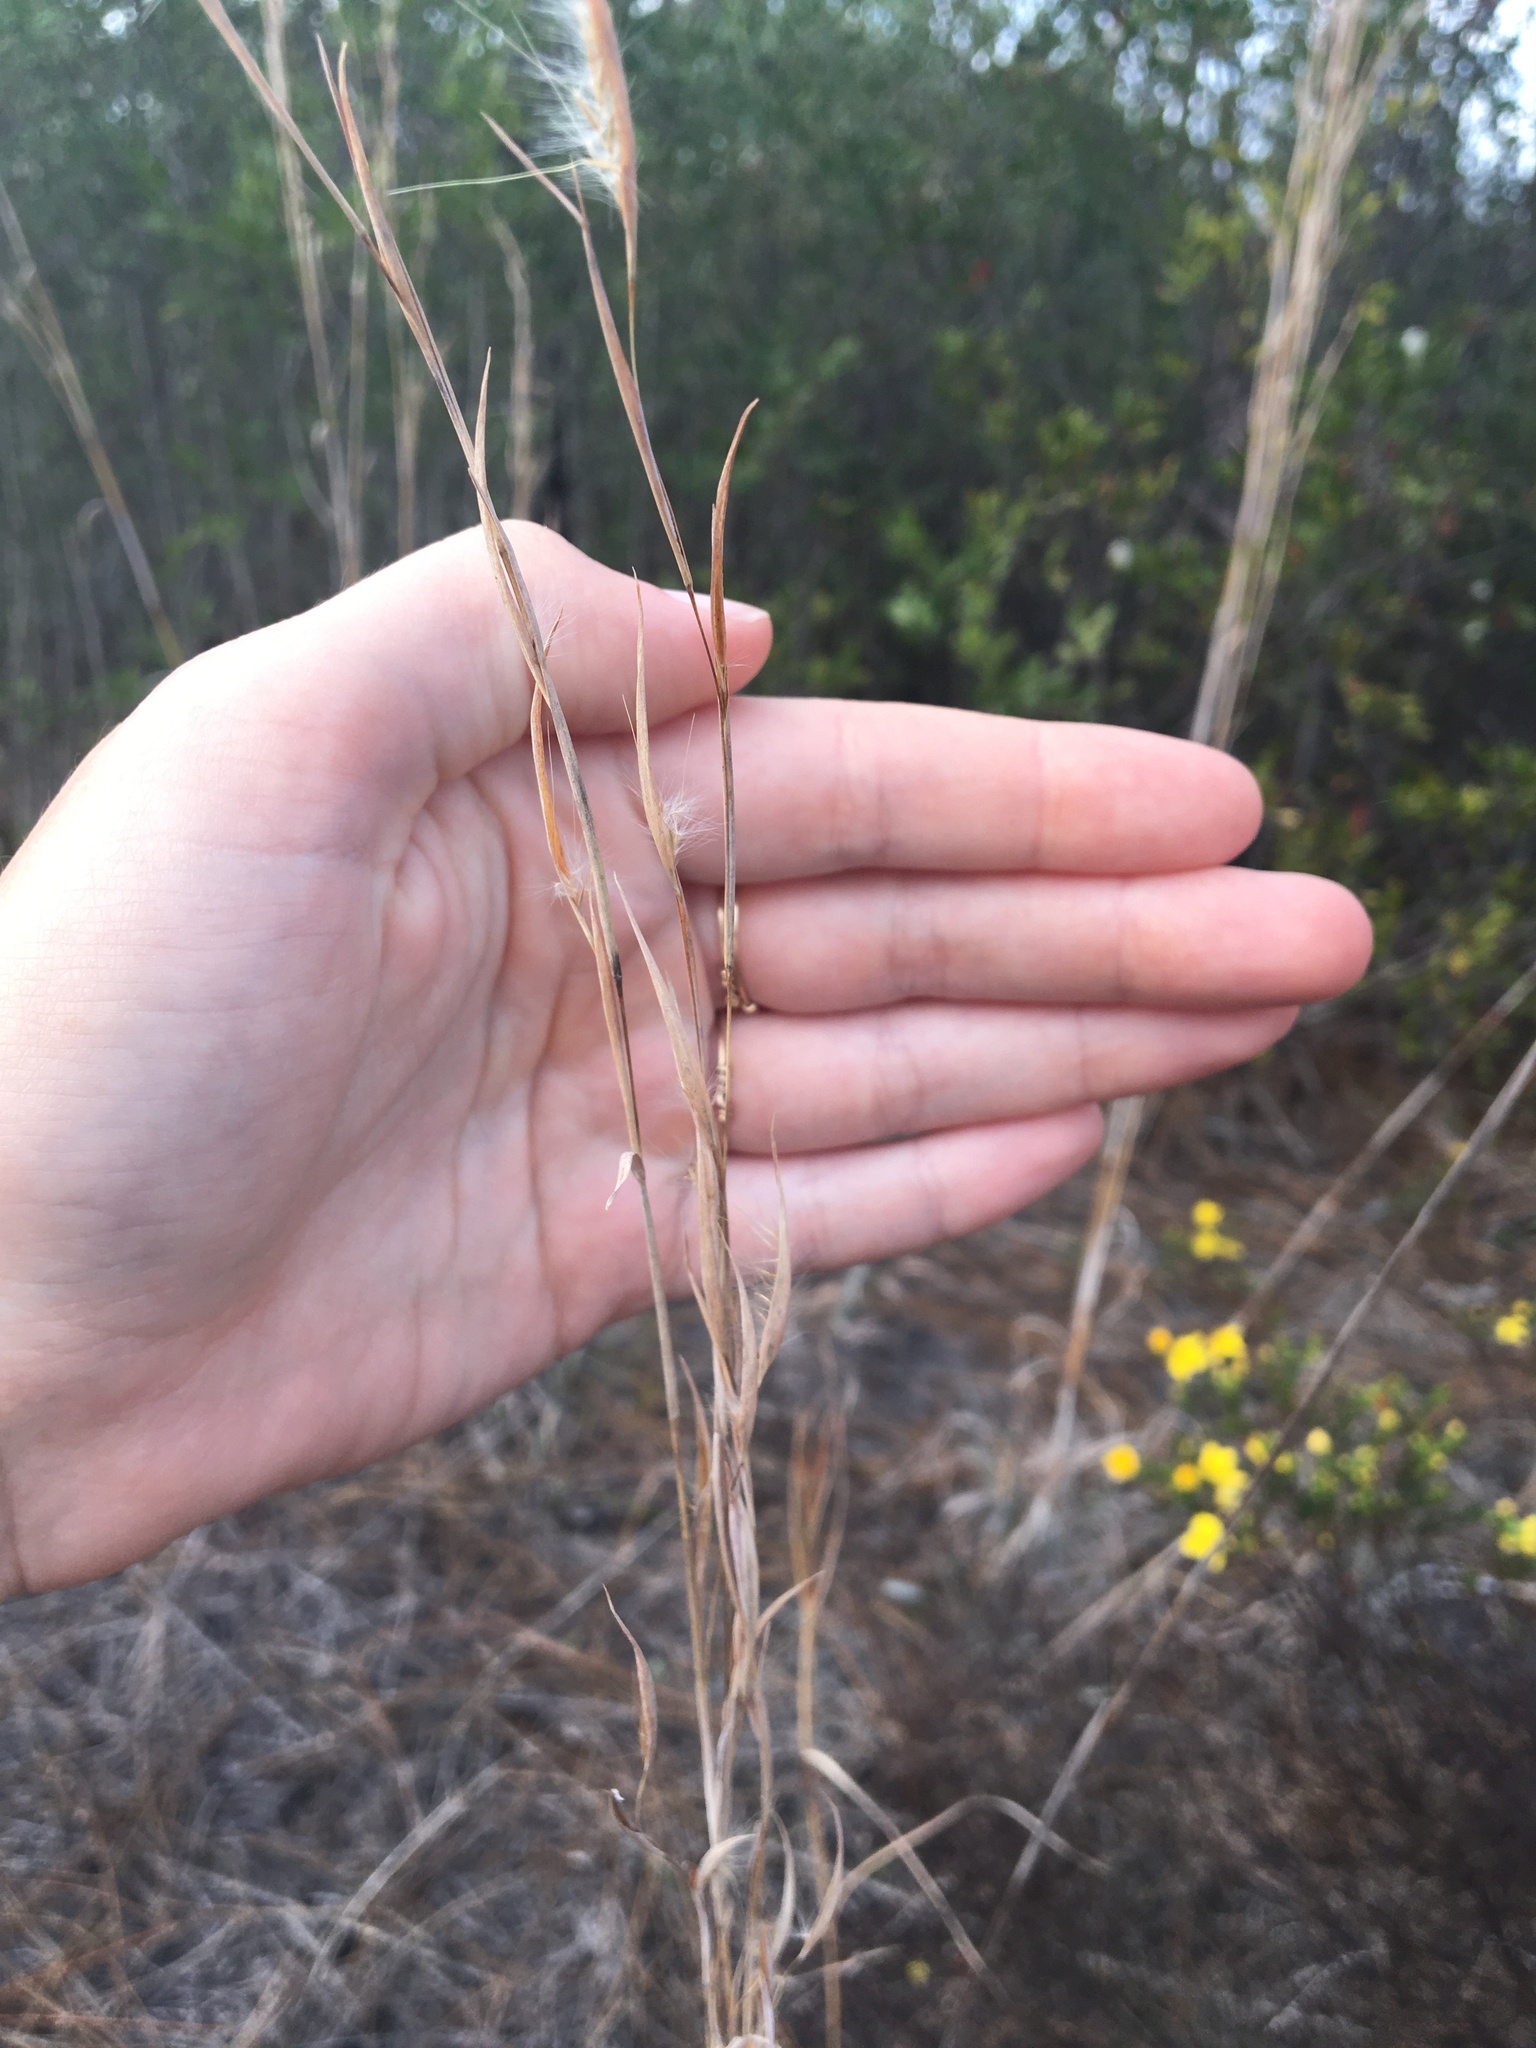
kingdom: Plantae
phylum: Tracheophyta
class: Liliopsida
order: Poales
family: Poaceae
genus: Andropogon
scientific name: Andropogon gyrans
